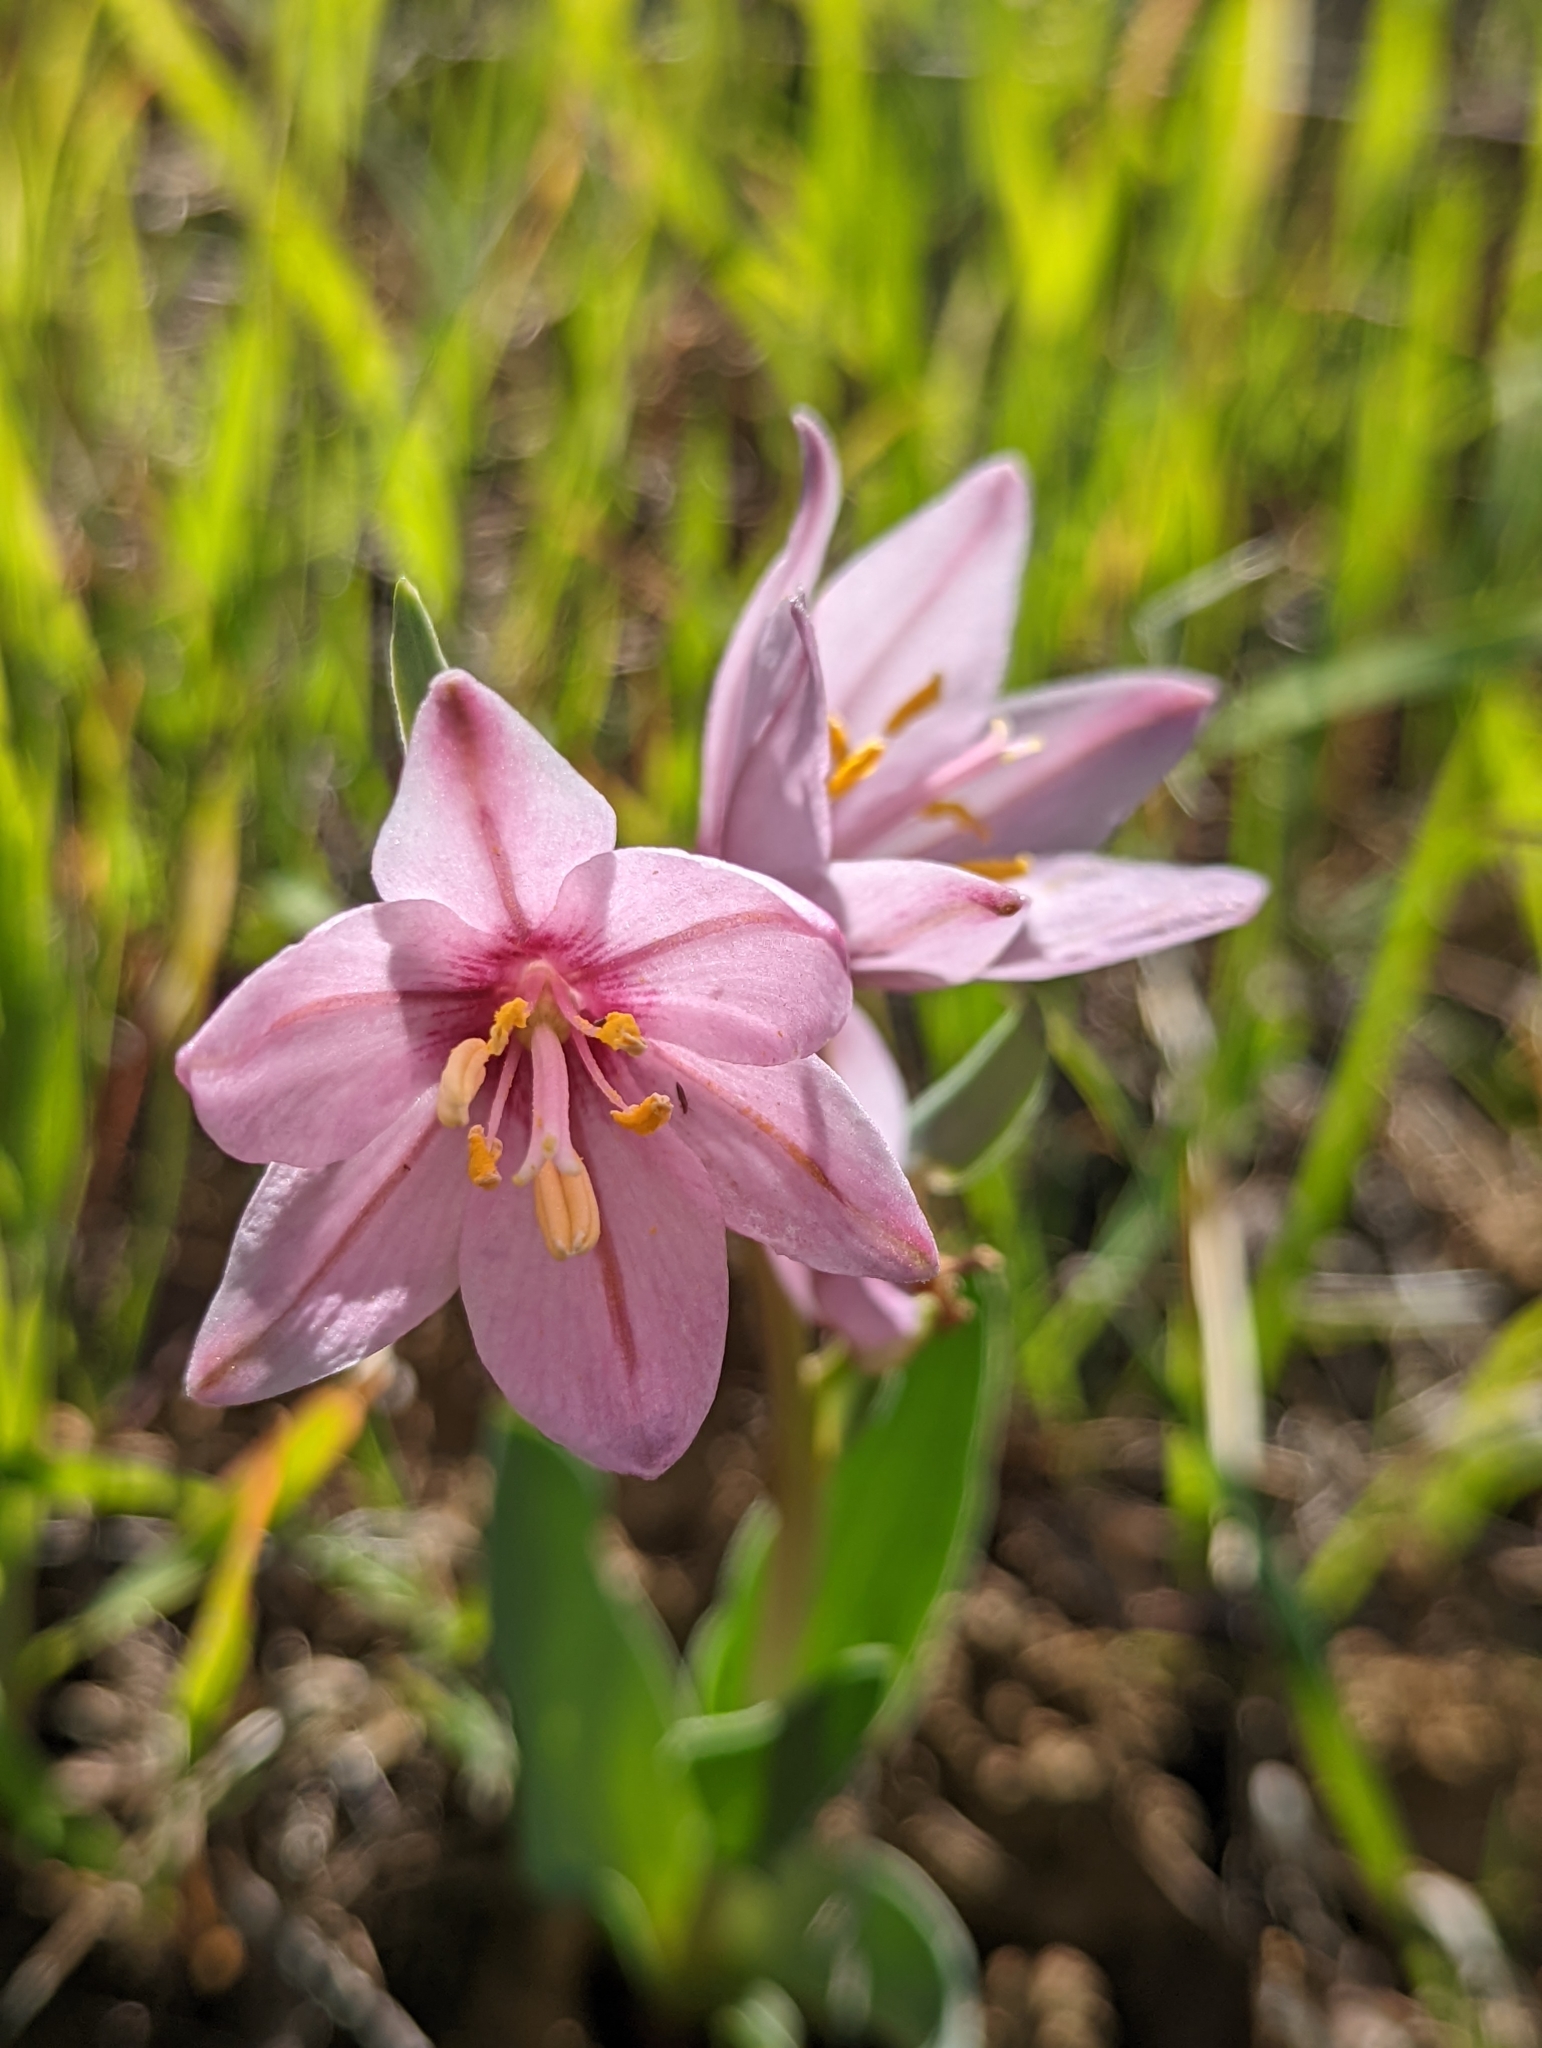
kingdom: Plantae
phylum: Tracheophyta
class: Liliopsida
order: Liliales
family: Liliaceae
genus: Fritillaria
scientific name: Fritillaria pluriflora
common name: Adobe-lily
